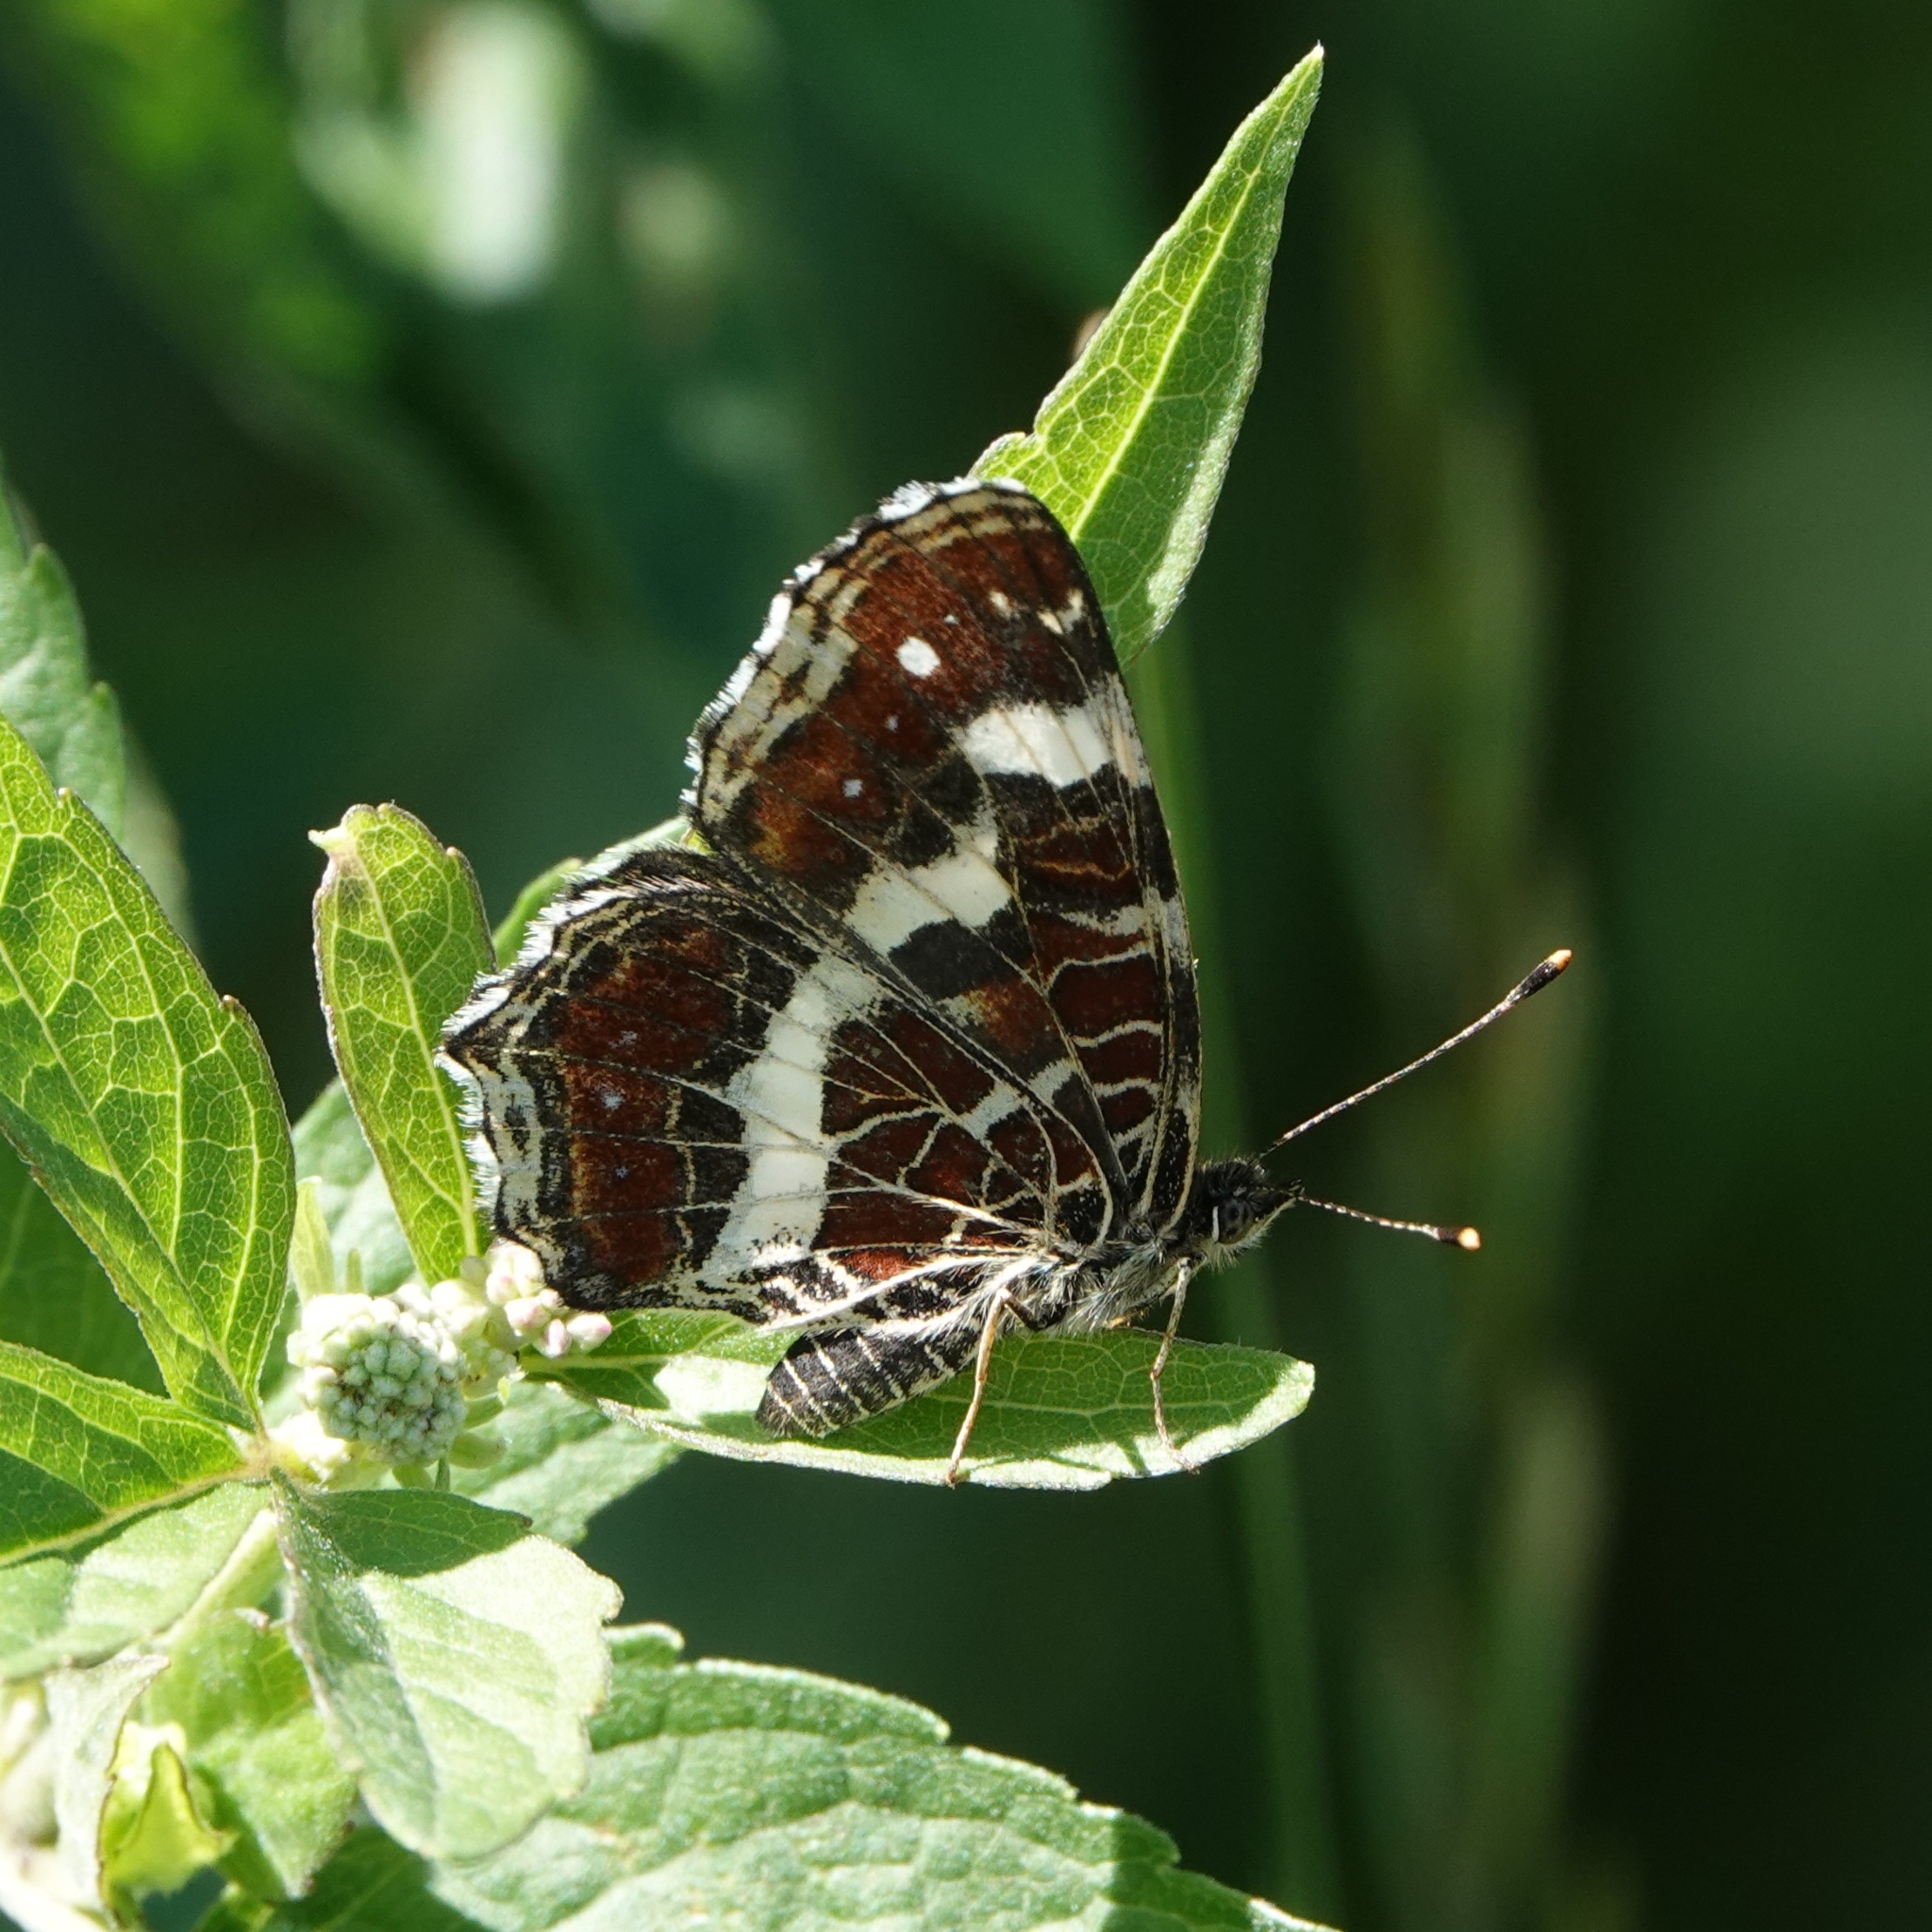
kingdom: Animalia
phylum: Arthropoda
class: Insecta
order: Lepidoptera
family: Nymphalidae
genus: Araschnia
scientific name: Araschnia levana
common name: Map butterfly
